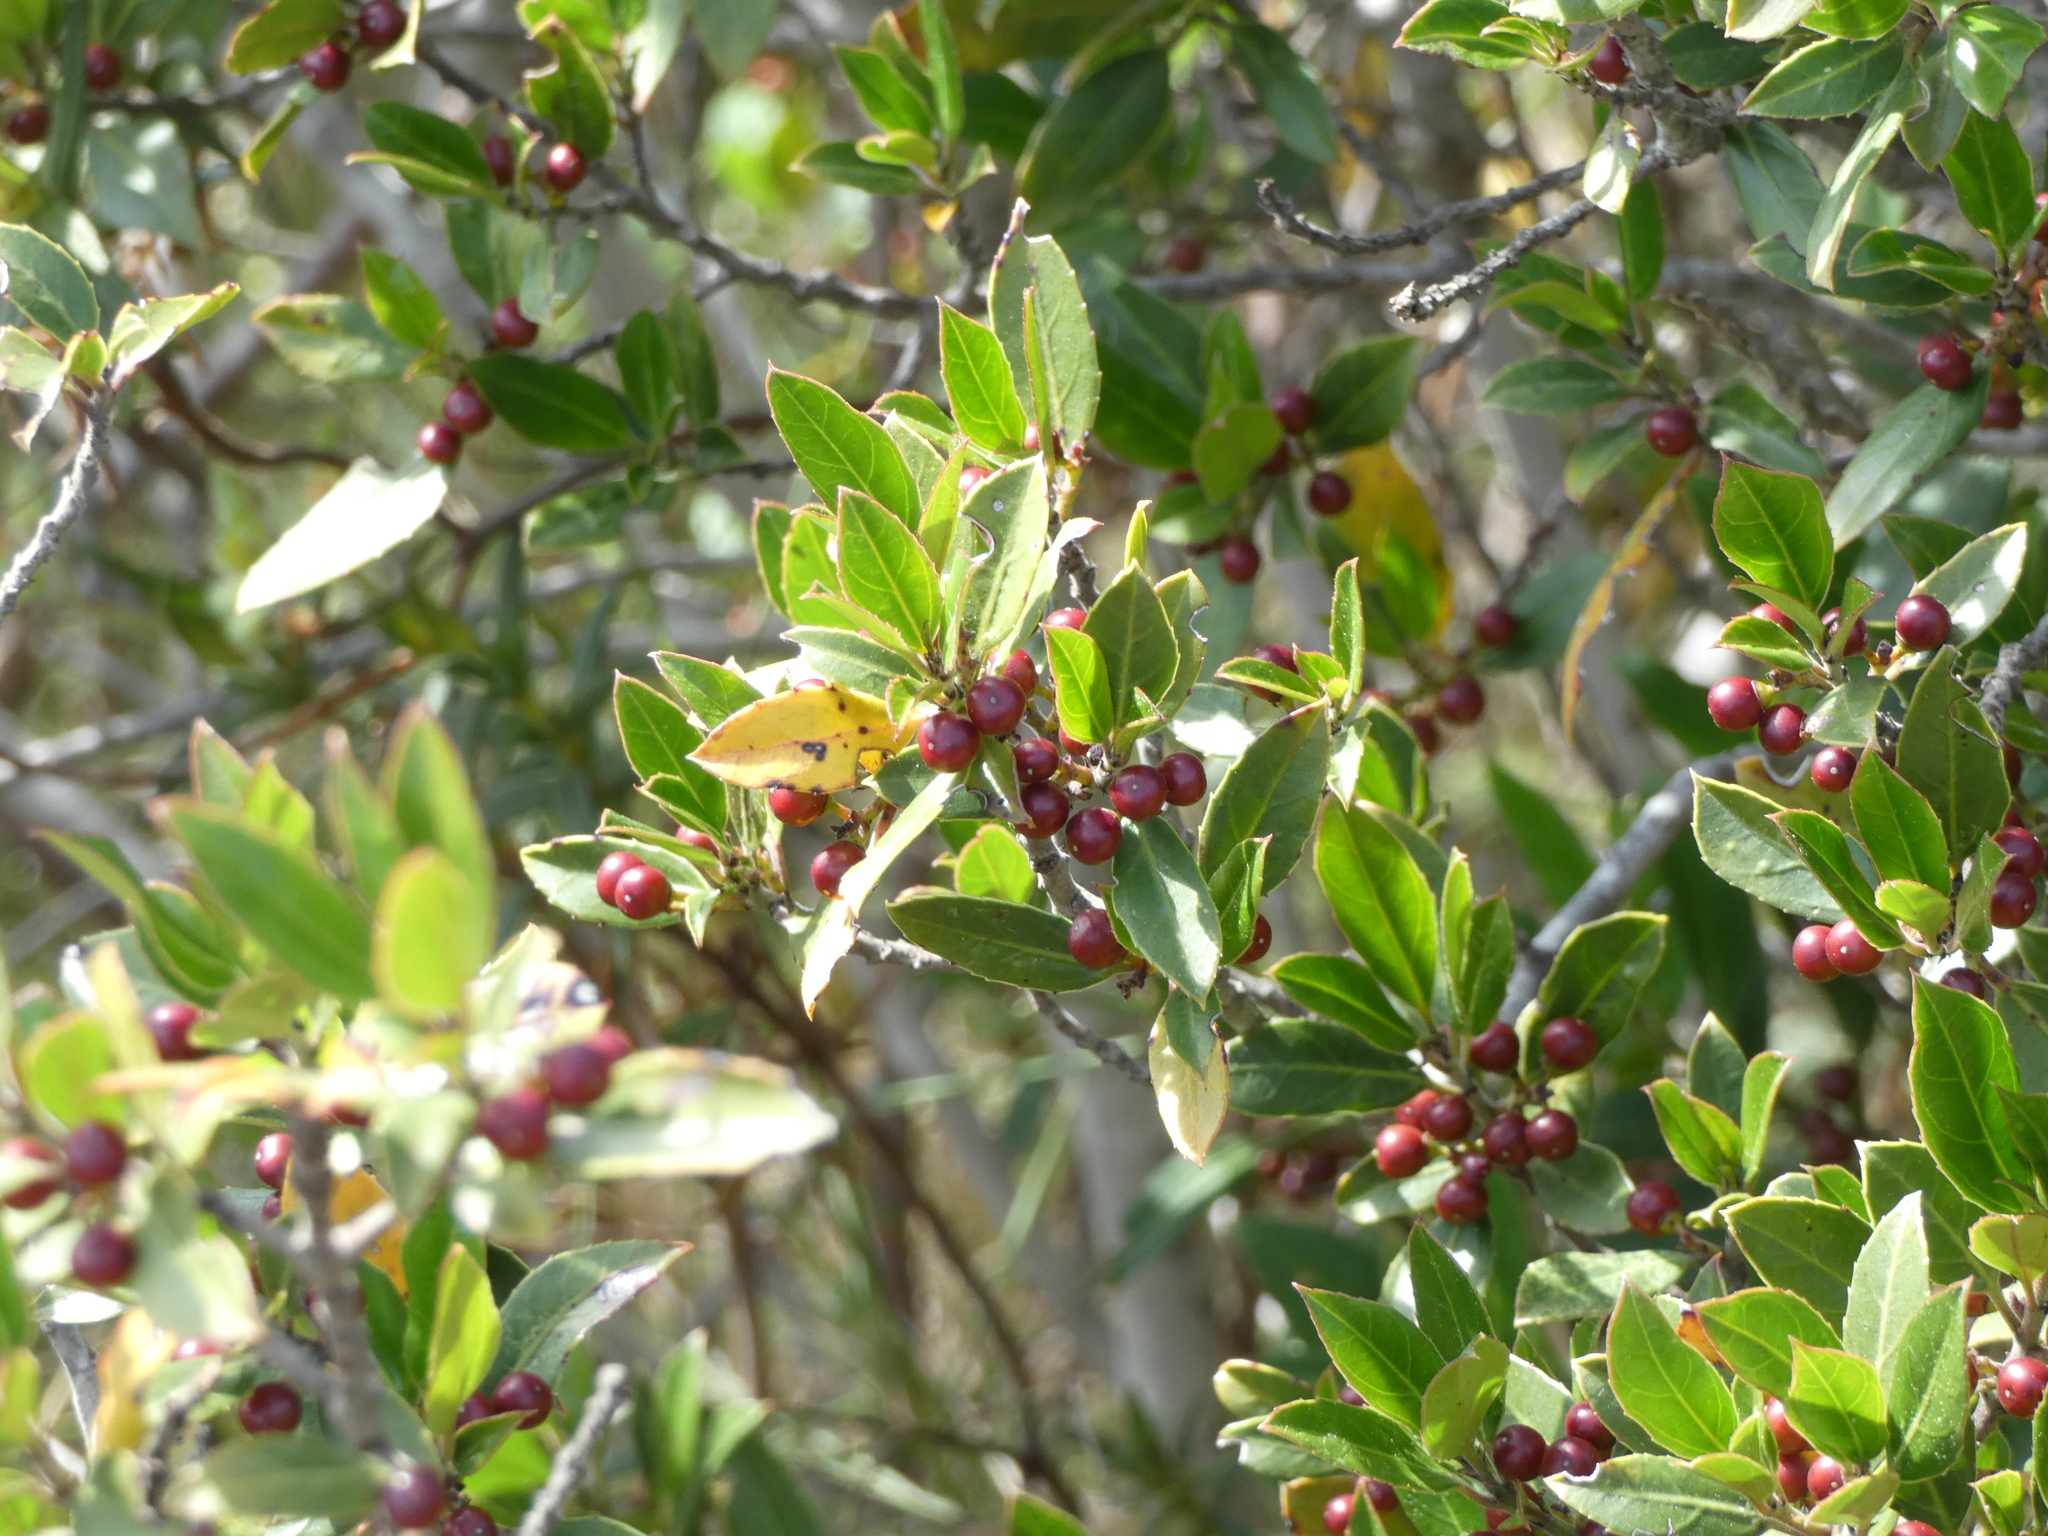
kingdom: Plantae
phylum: Tracheophyta
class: Magnoliopsida
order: Rosales
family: Rhamnaceae
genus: Rhamnus
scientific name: Rhamnus alaternus
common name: Mediterranean buckthorn
